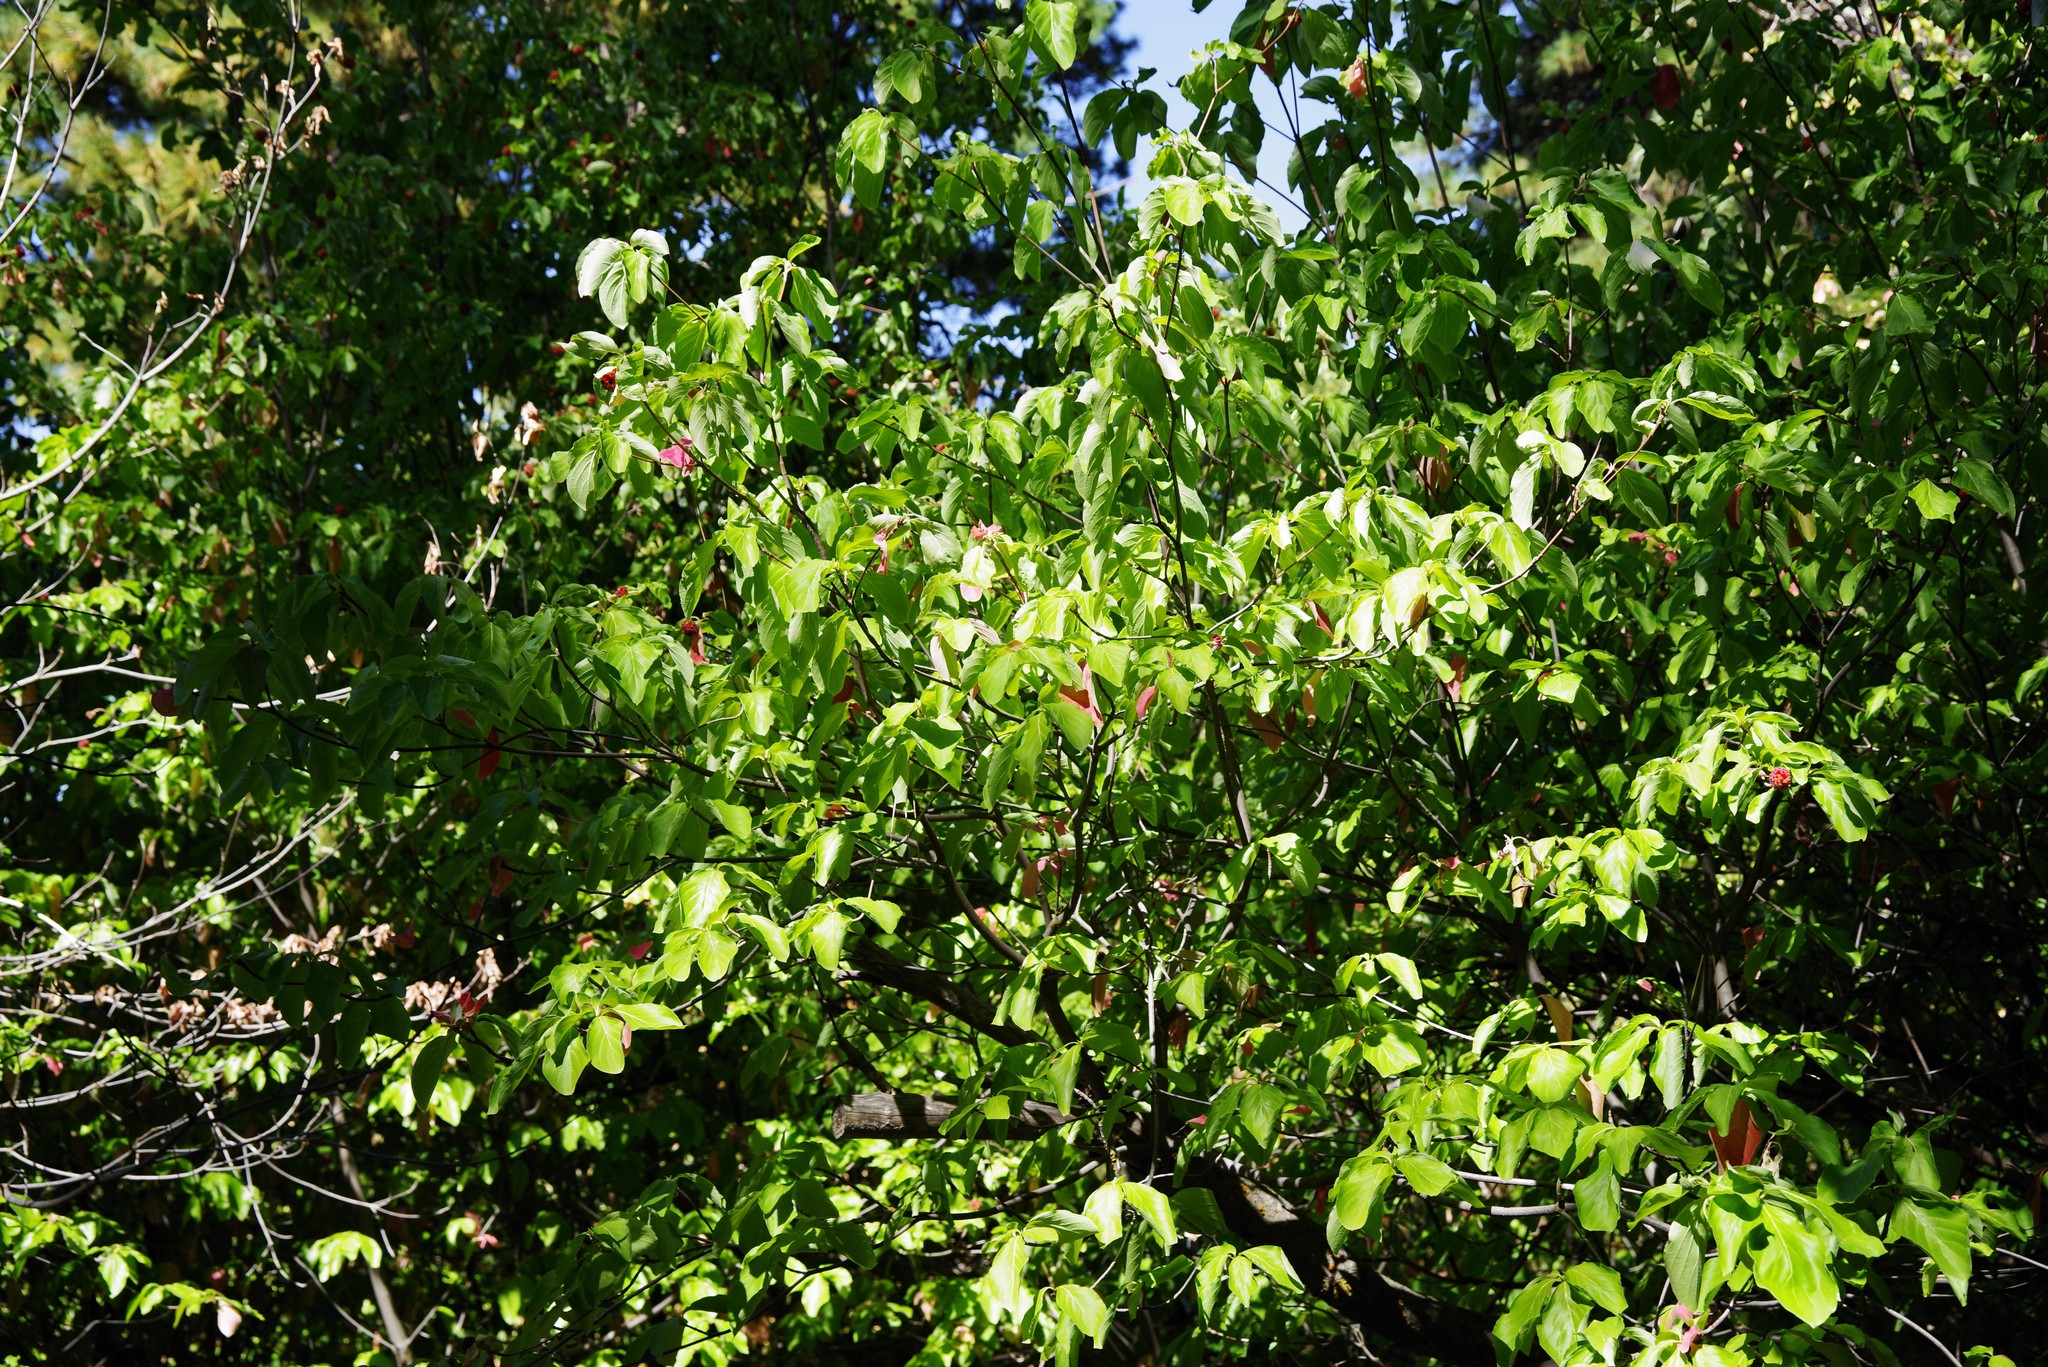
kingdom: Plantae
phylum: Tracheophyta
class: Magnoliopsida
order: Cornales
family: Cornaceae
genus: Cornus
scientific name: Cornus nuttallii
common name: Pacific dogwood
